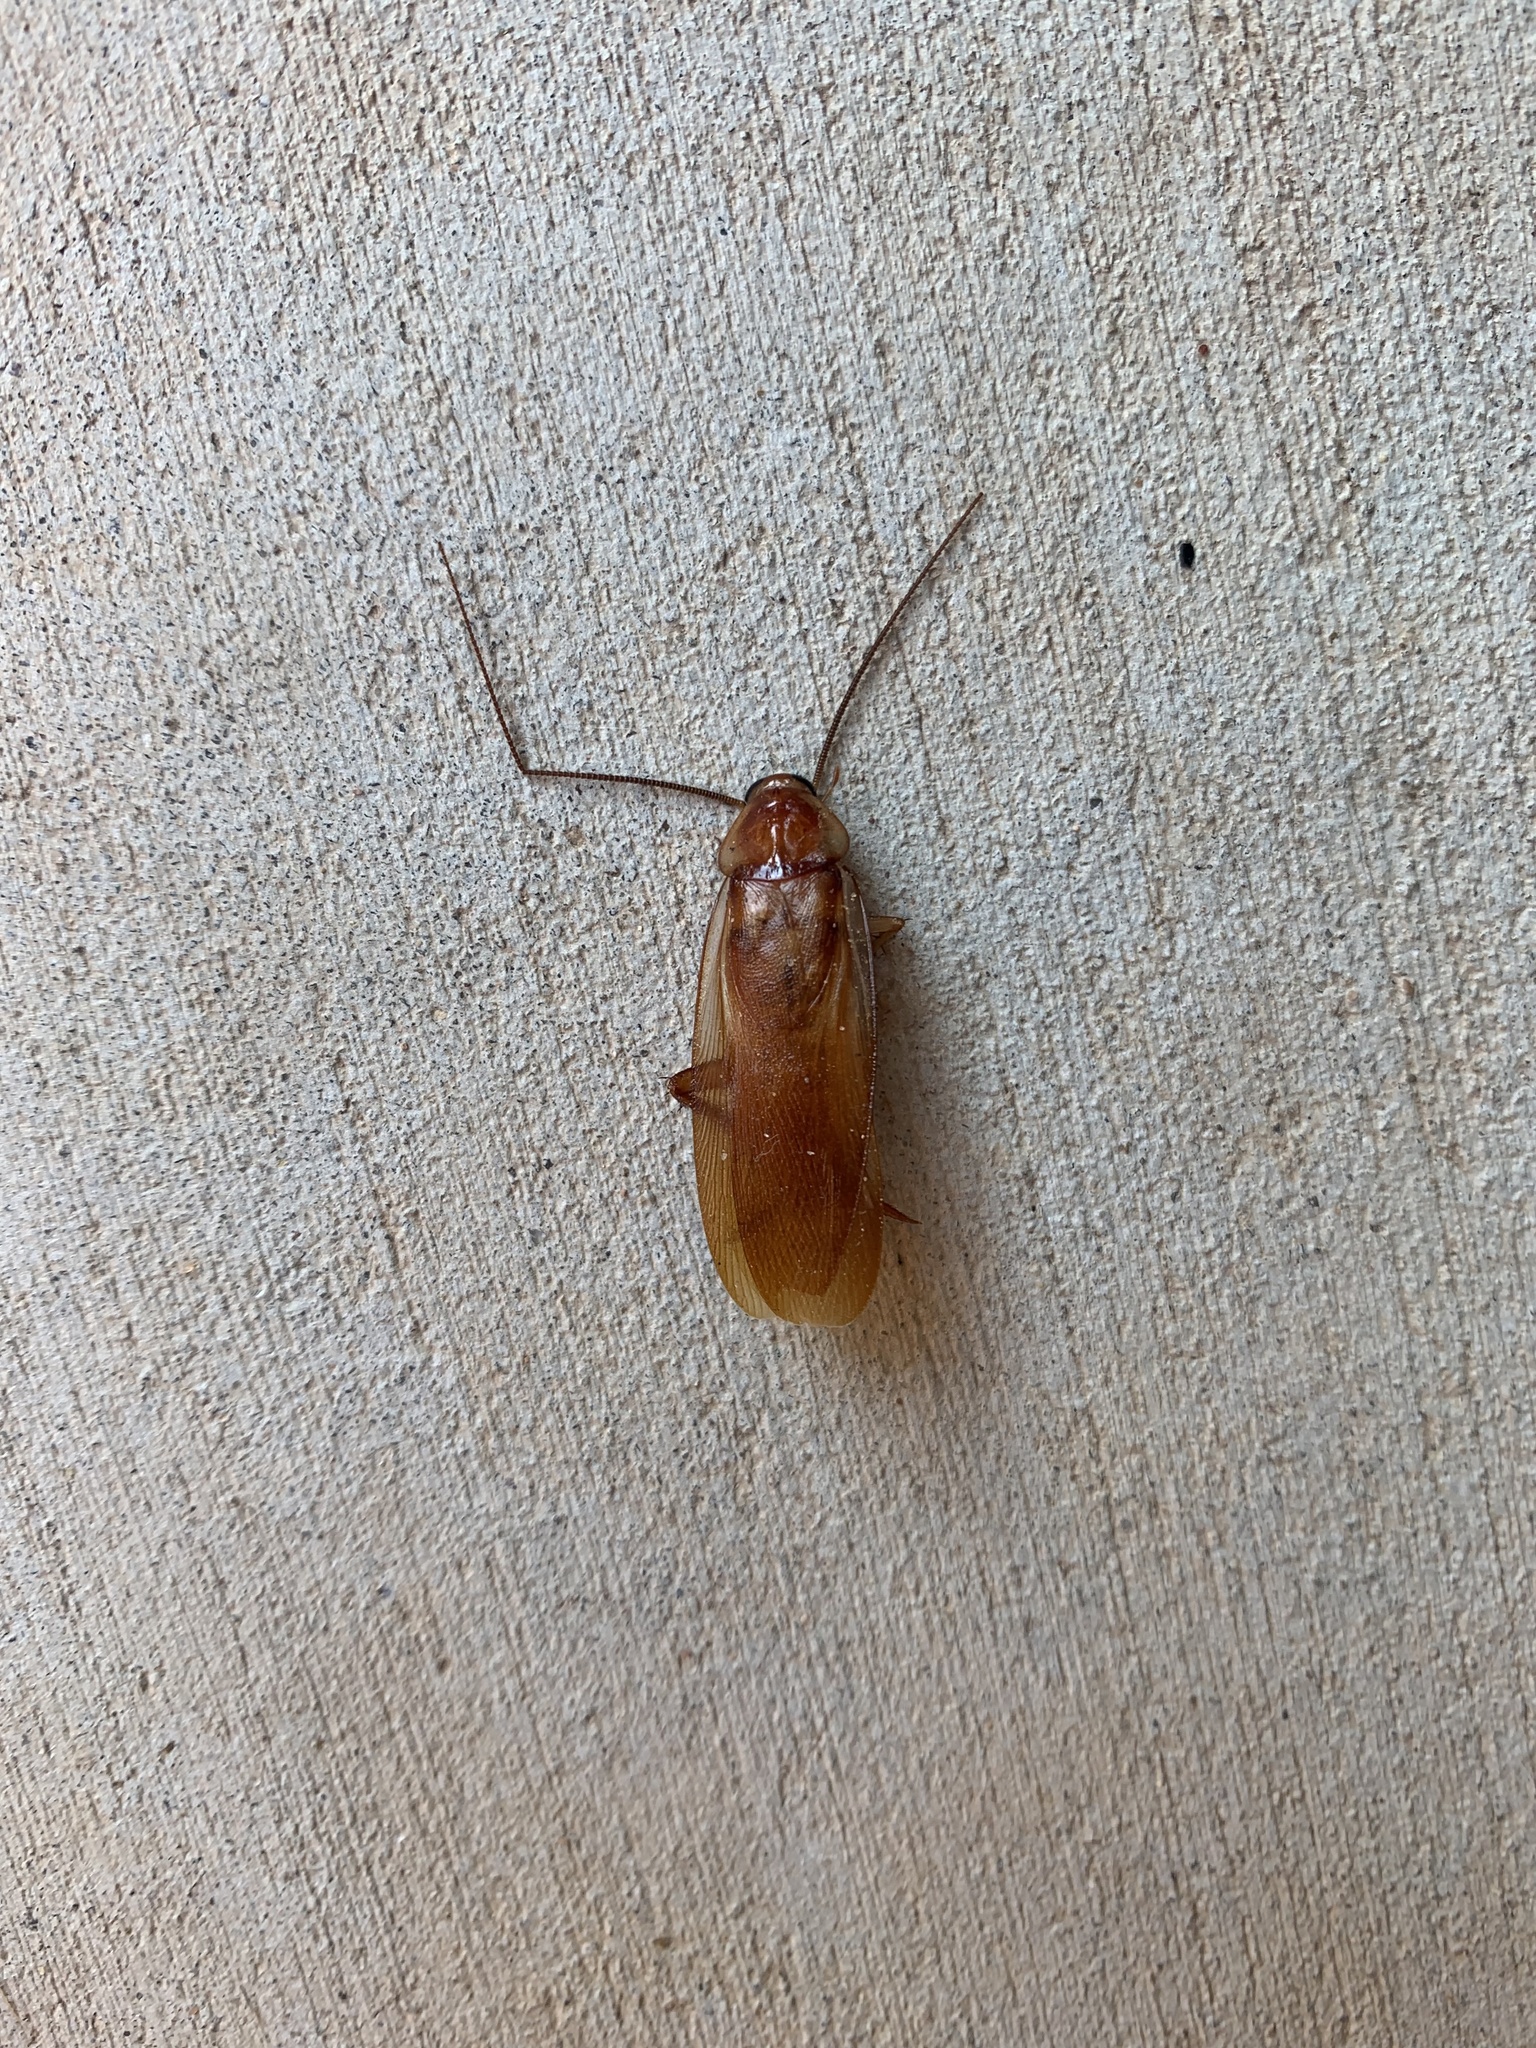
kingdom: Animalia
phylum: Arthropoda
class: Insecta
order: Blattodea
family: Blattidae
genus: Periplaneta
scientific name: Periplaneta lateralis
